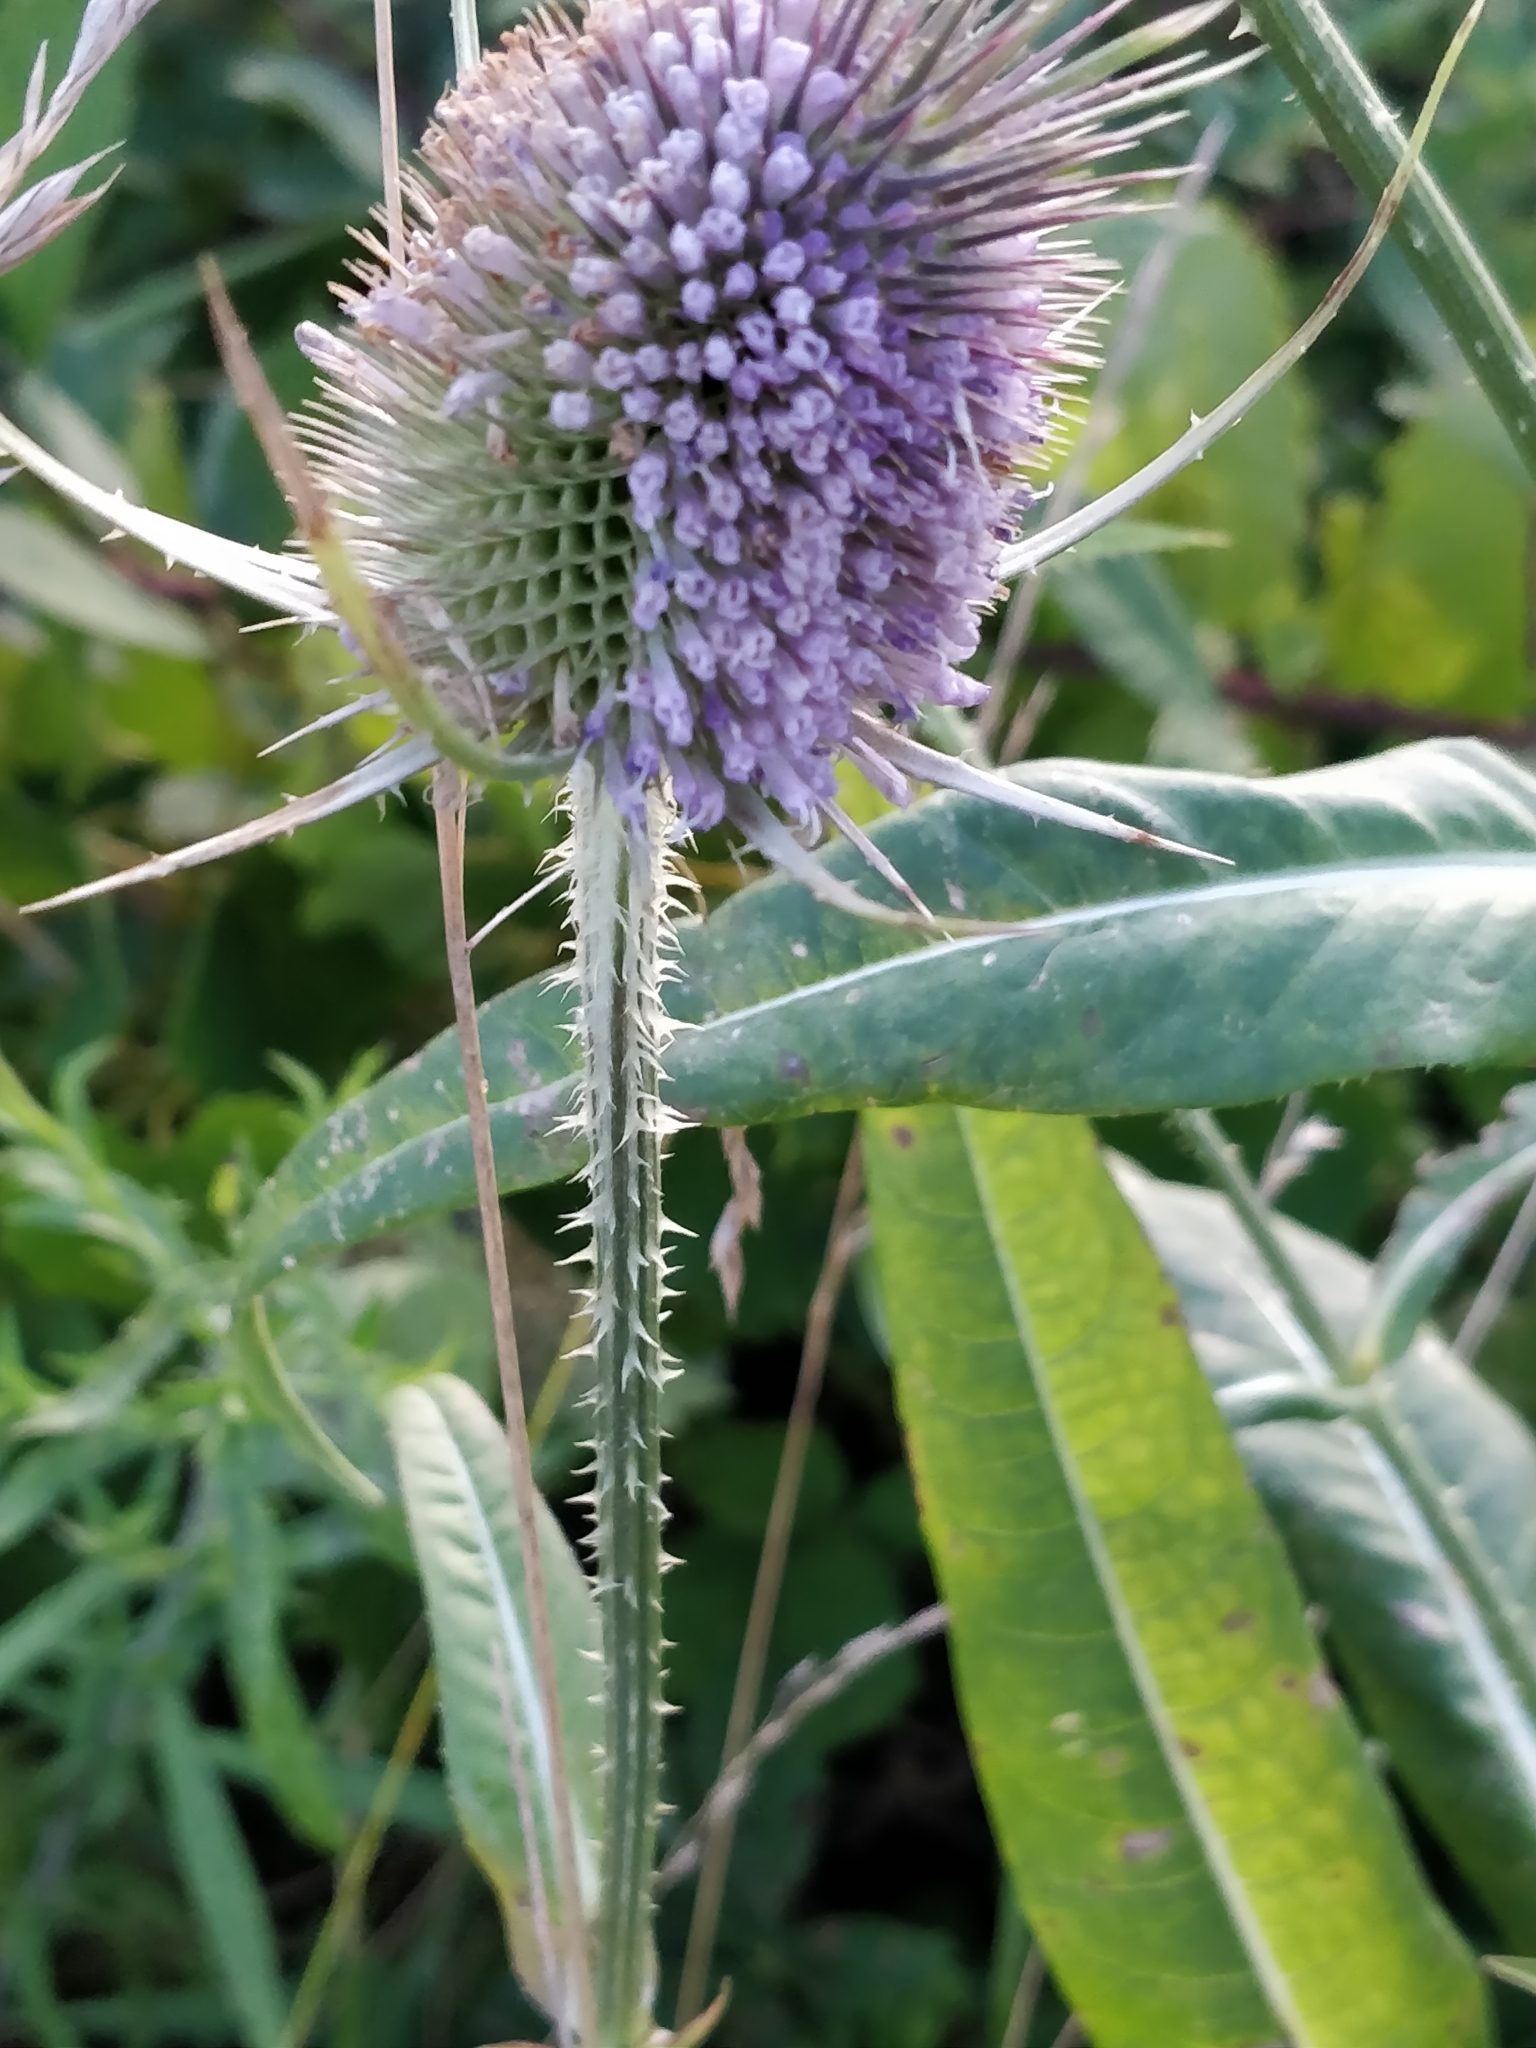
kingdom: Plantae
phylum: Tracheophyta
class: Magnoliopsida
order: Dipsacales
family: Caprifoliaceae
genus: Dipsacus
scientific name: Dipsacus fullonum
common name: Teasel
